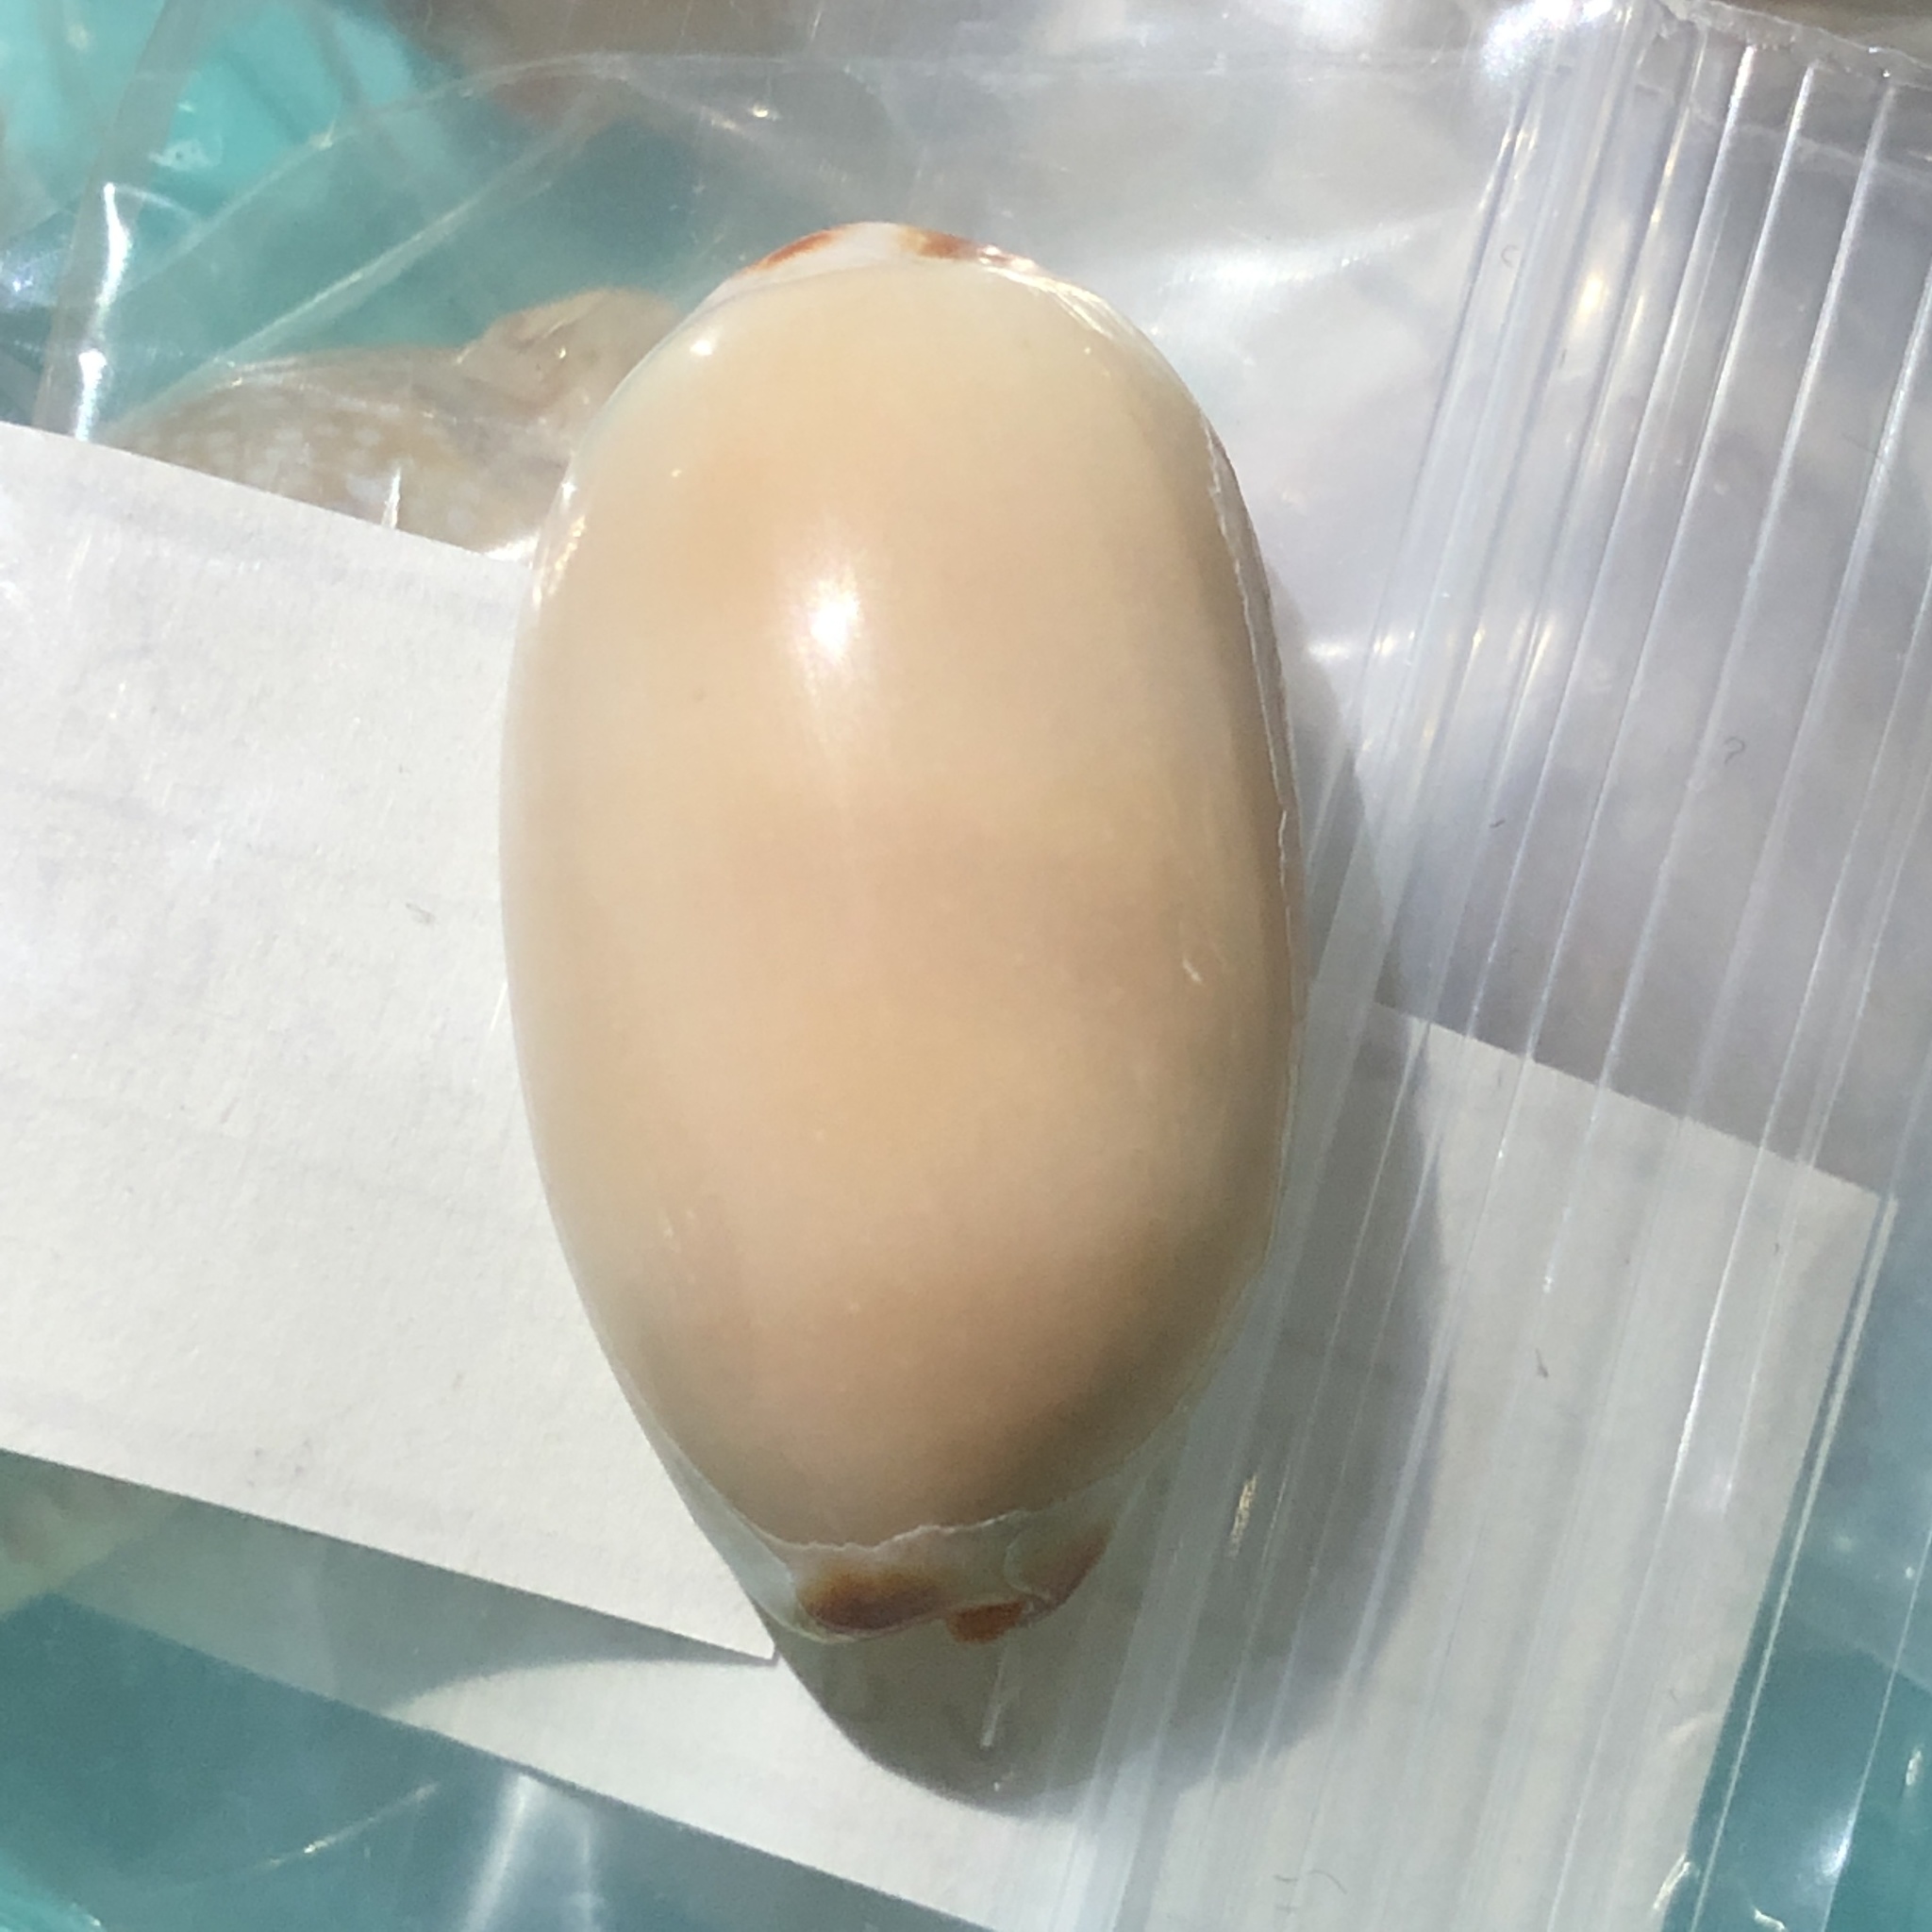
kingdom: Animalia
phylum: Mollusca
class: Gastropoda
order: Littorinimorpha
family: Cypraeidae
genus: Luria
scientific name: Luria isabella
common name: Isabell cowry
